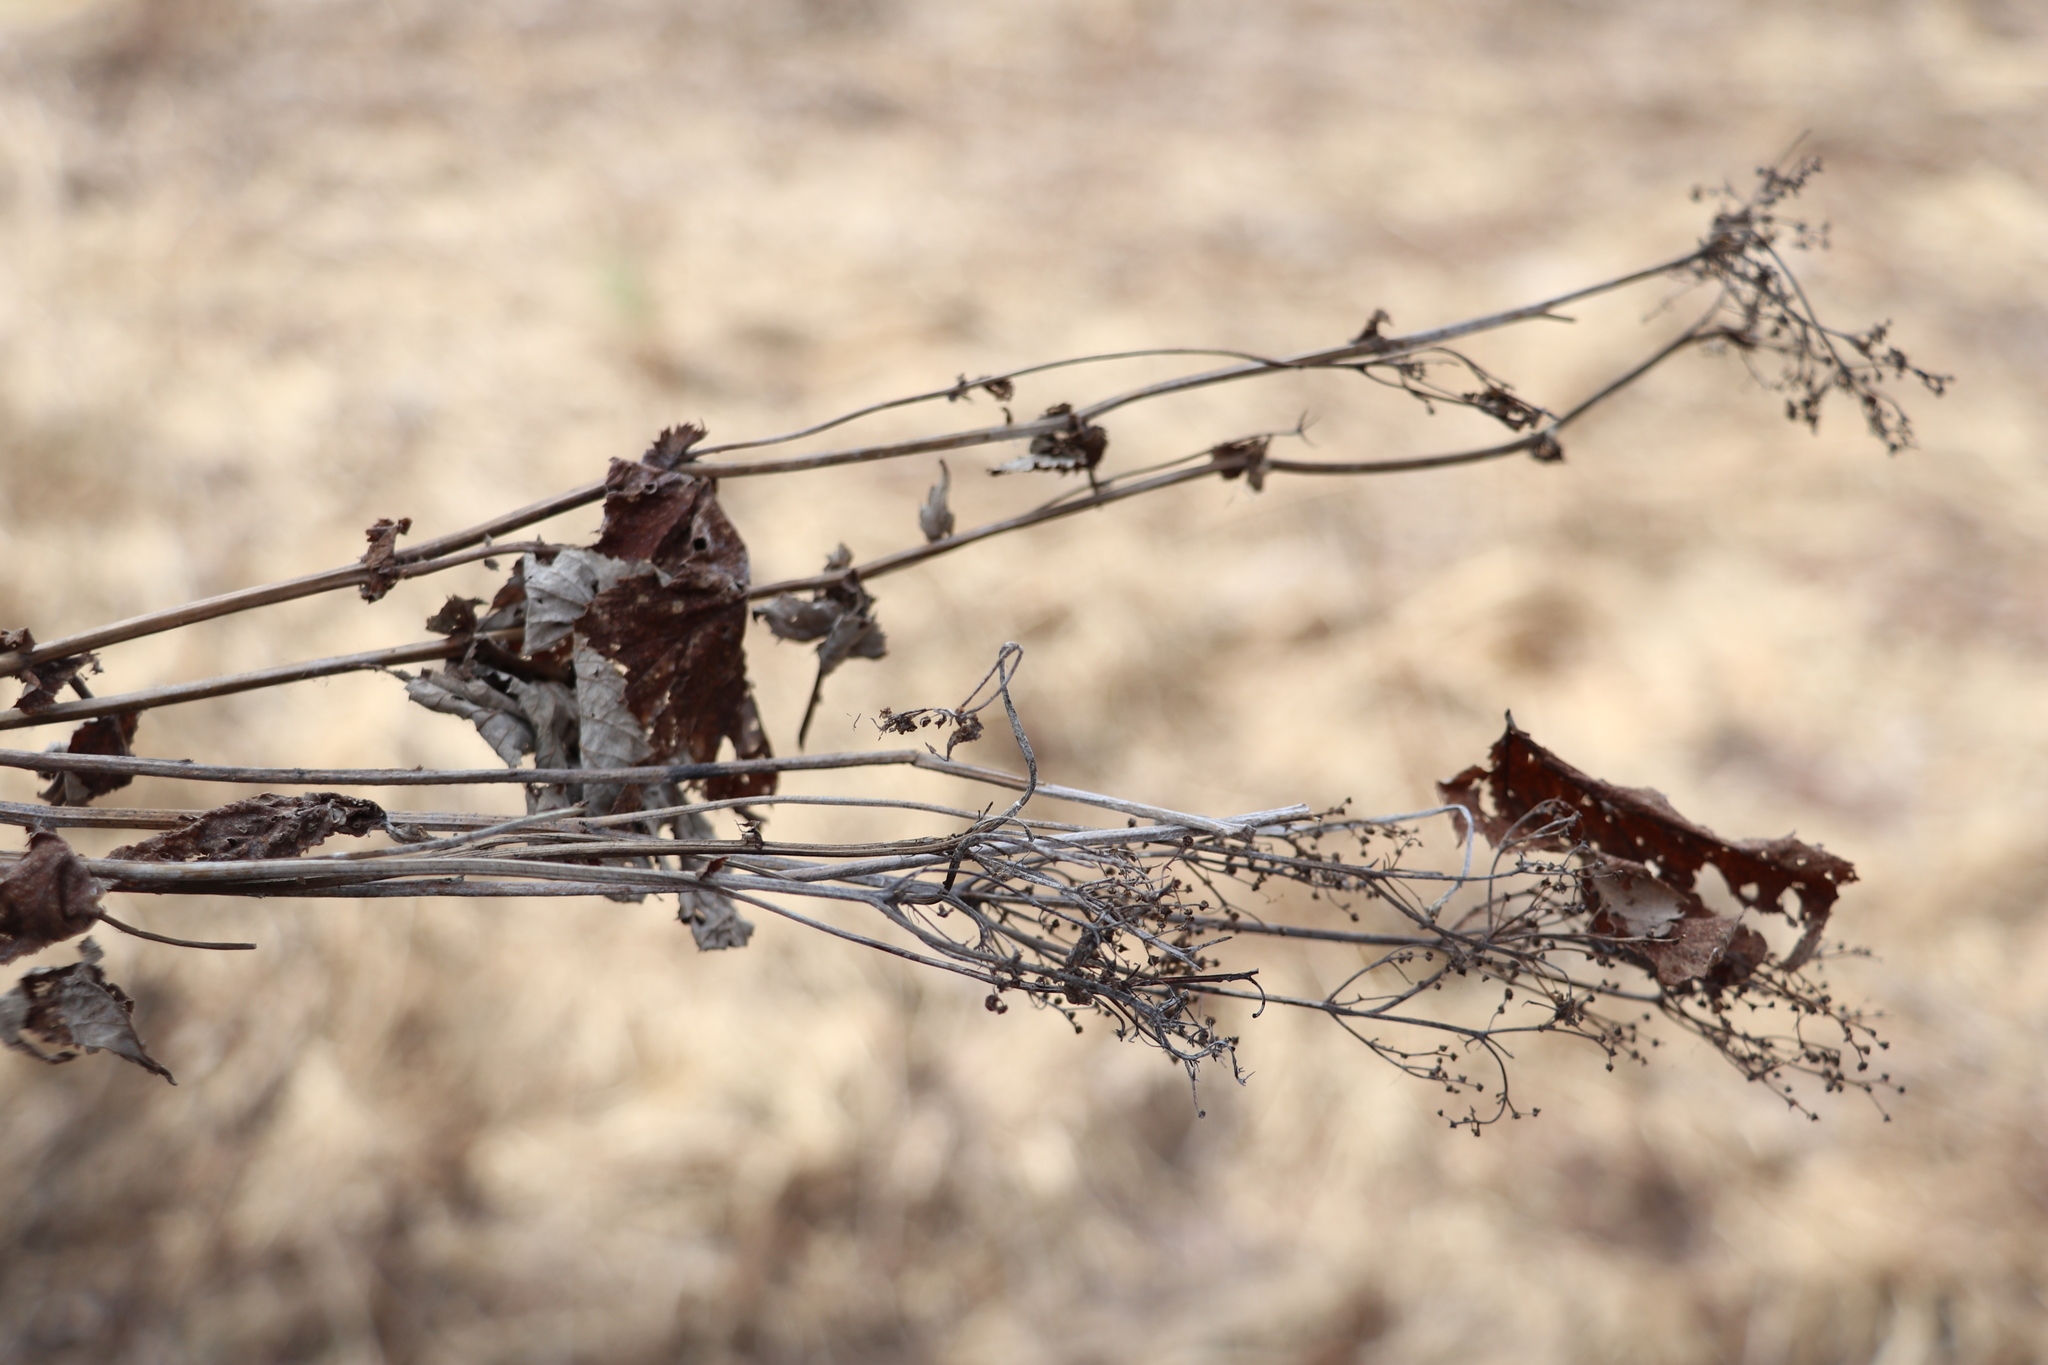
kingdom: Plantae
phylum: Tracheophyta
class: Magnoliopsida
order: Rosales
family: Rosaceae
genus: Filipendula
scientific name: Filipendula ulmaria
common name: Meadowsweet
